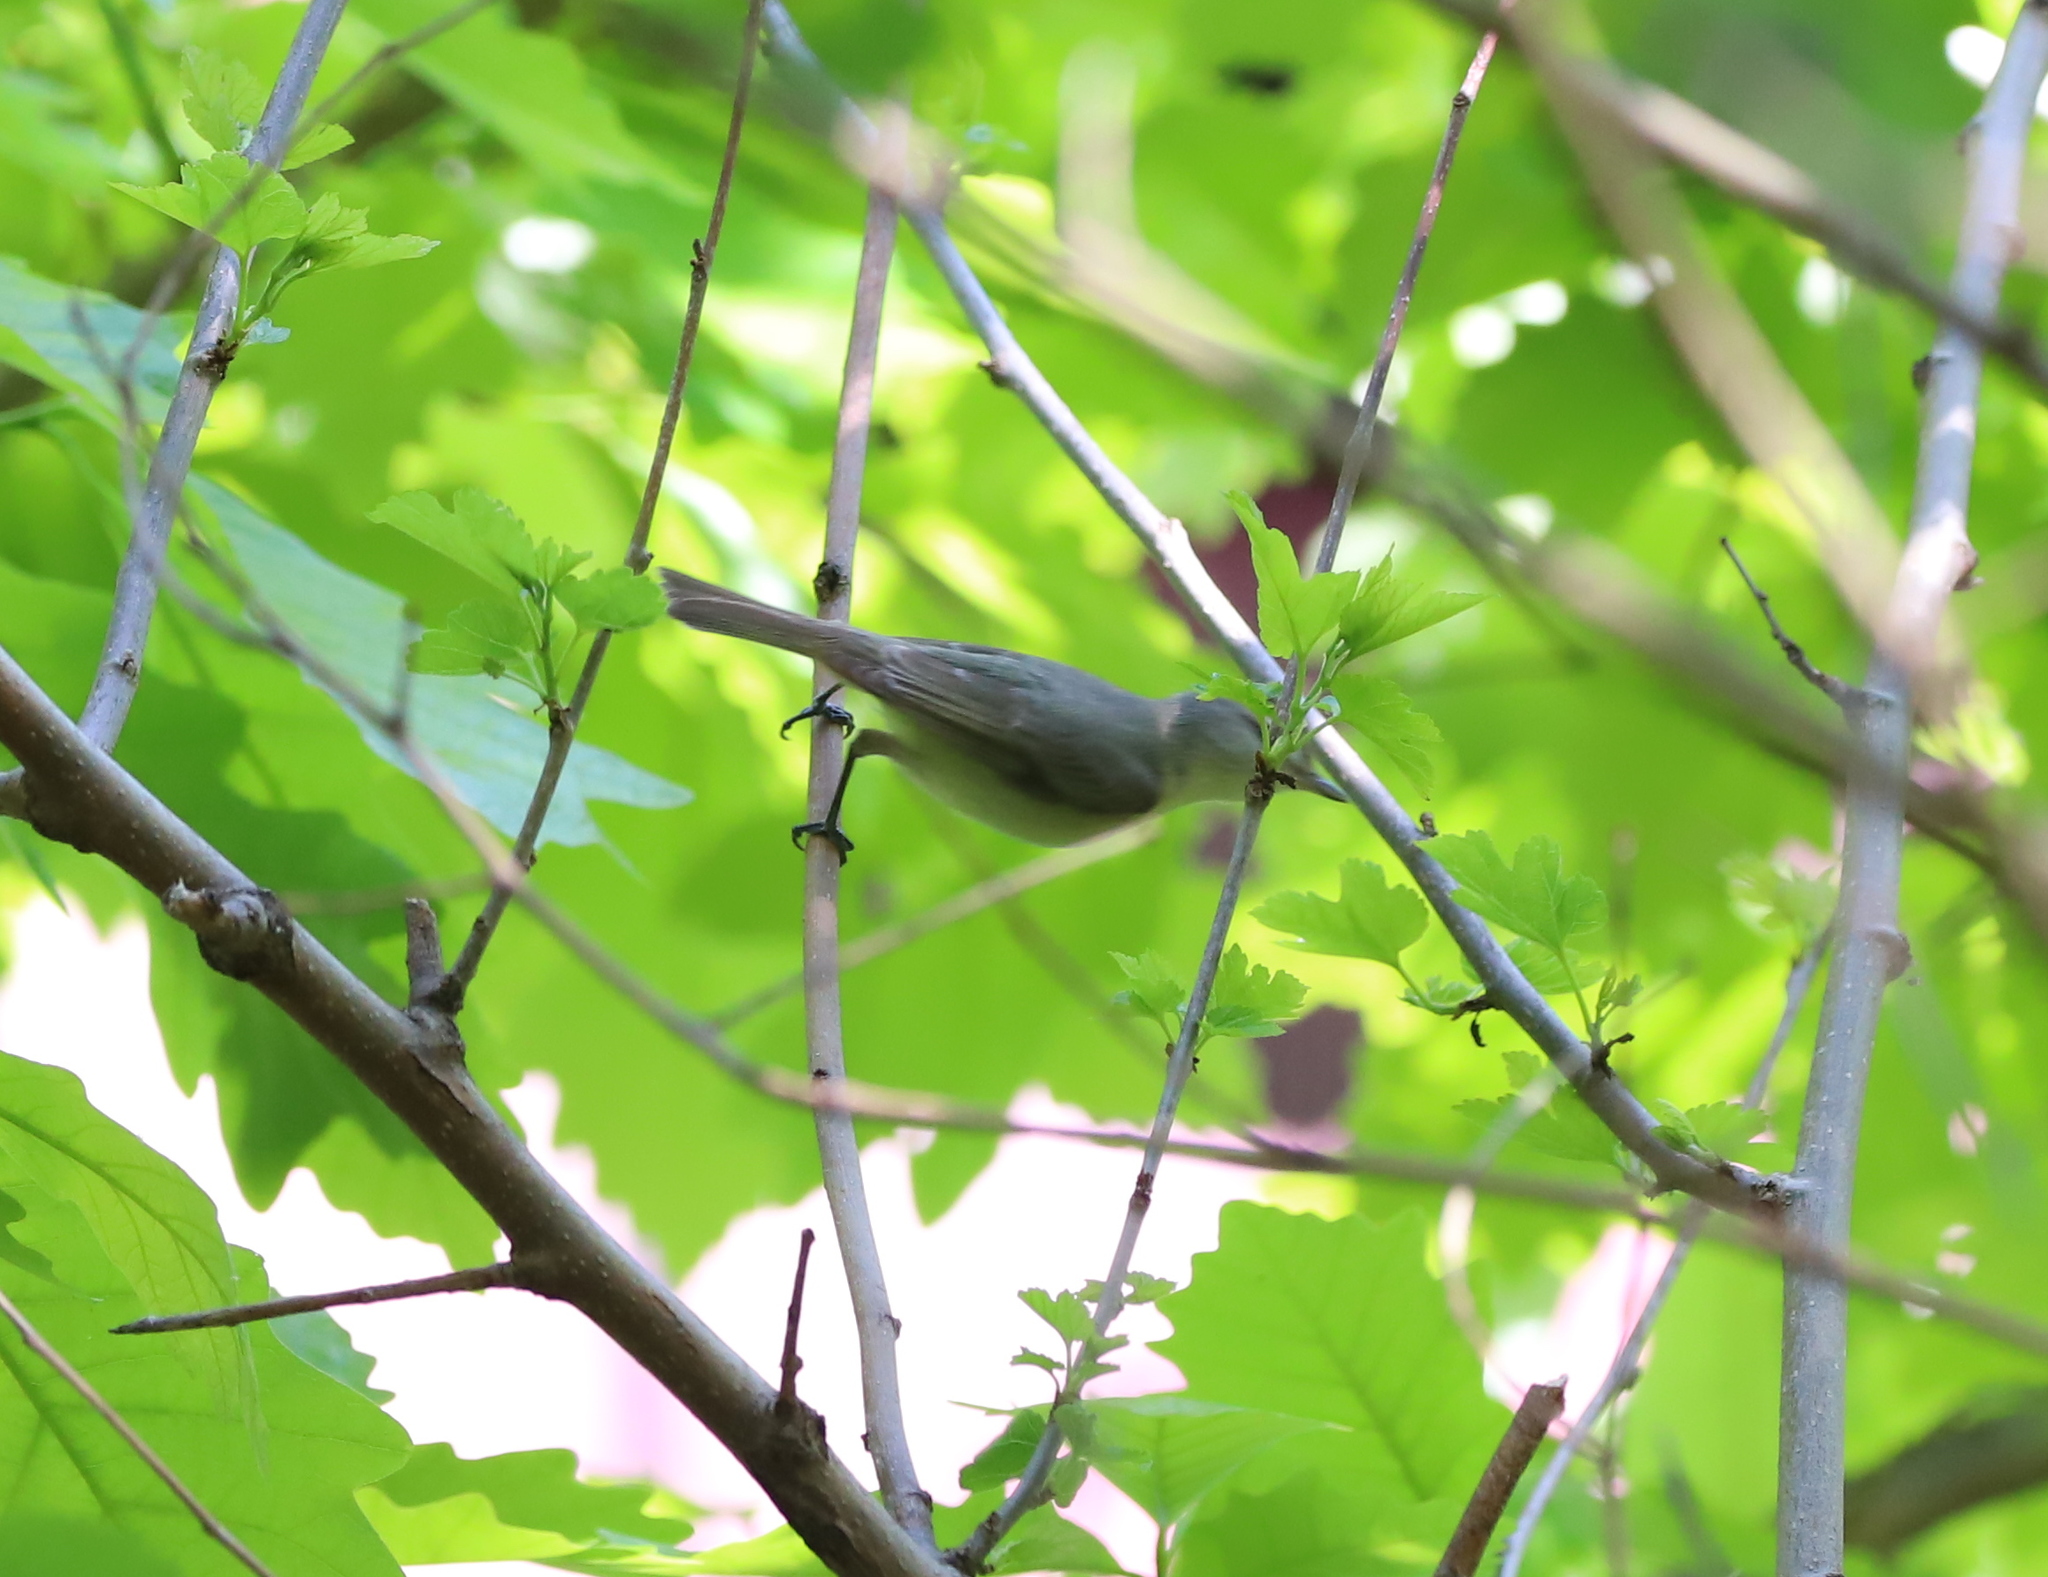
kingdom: Animalia
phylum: Chordata
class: Aves
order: Passeriformes
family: Vireonidae
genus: Vireo
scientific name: Vireo gilvus
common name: Warbling vireo
